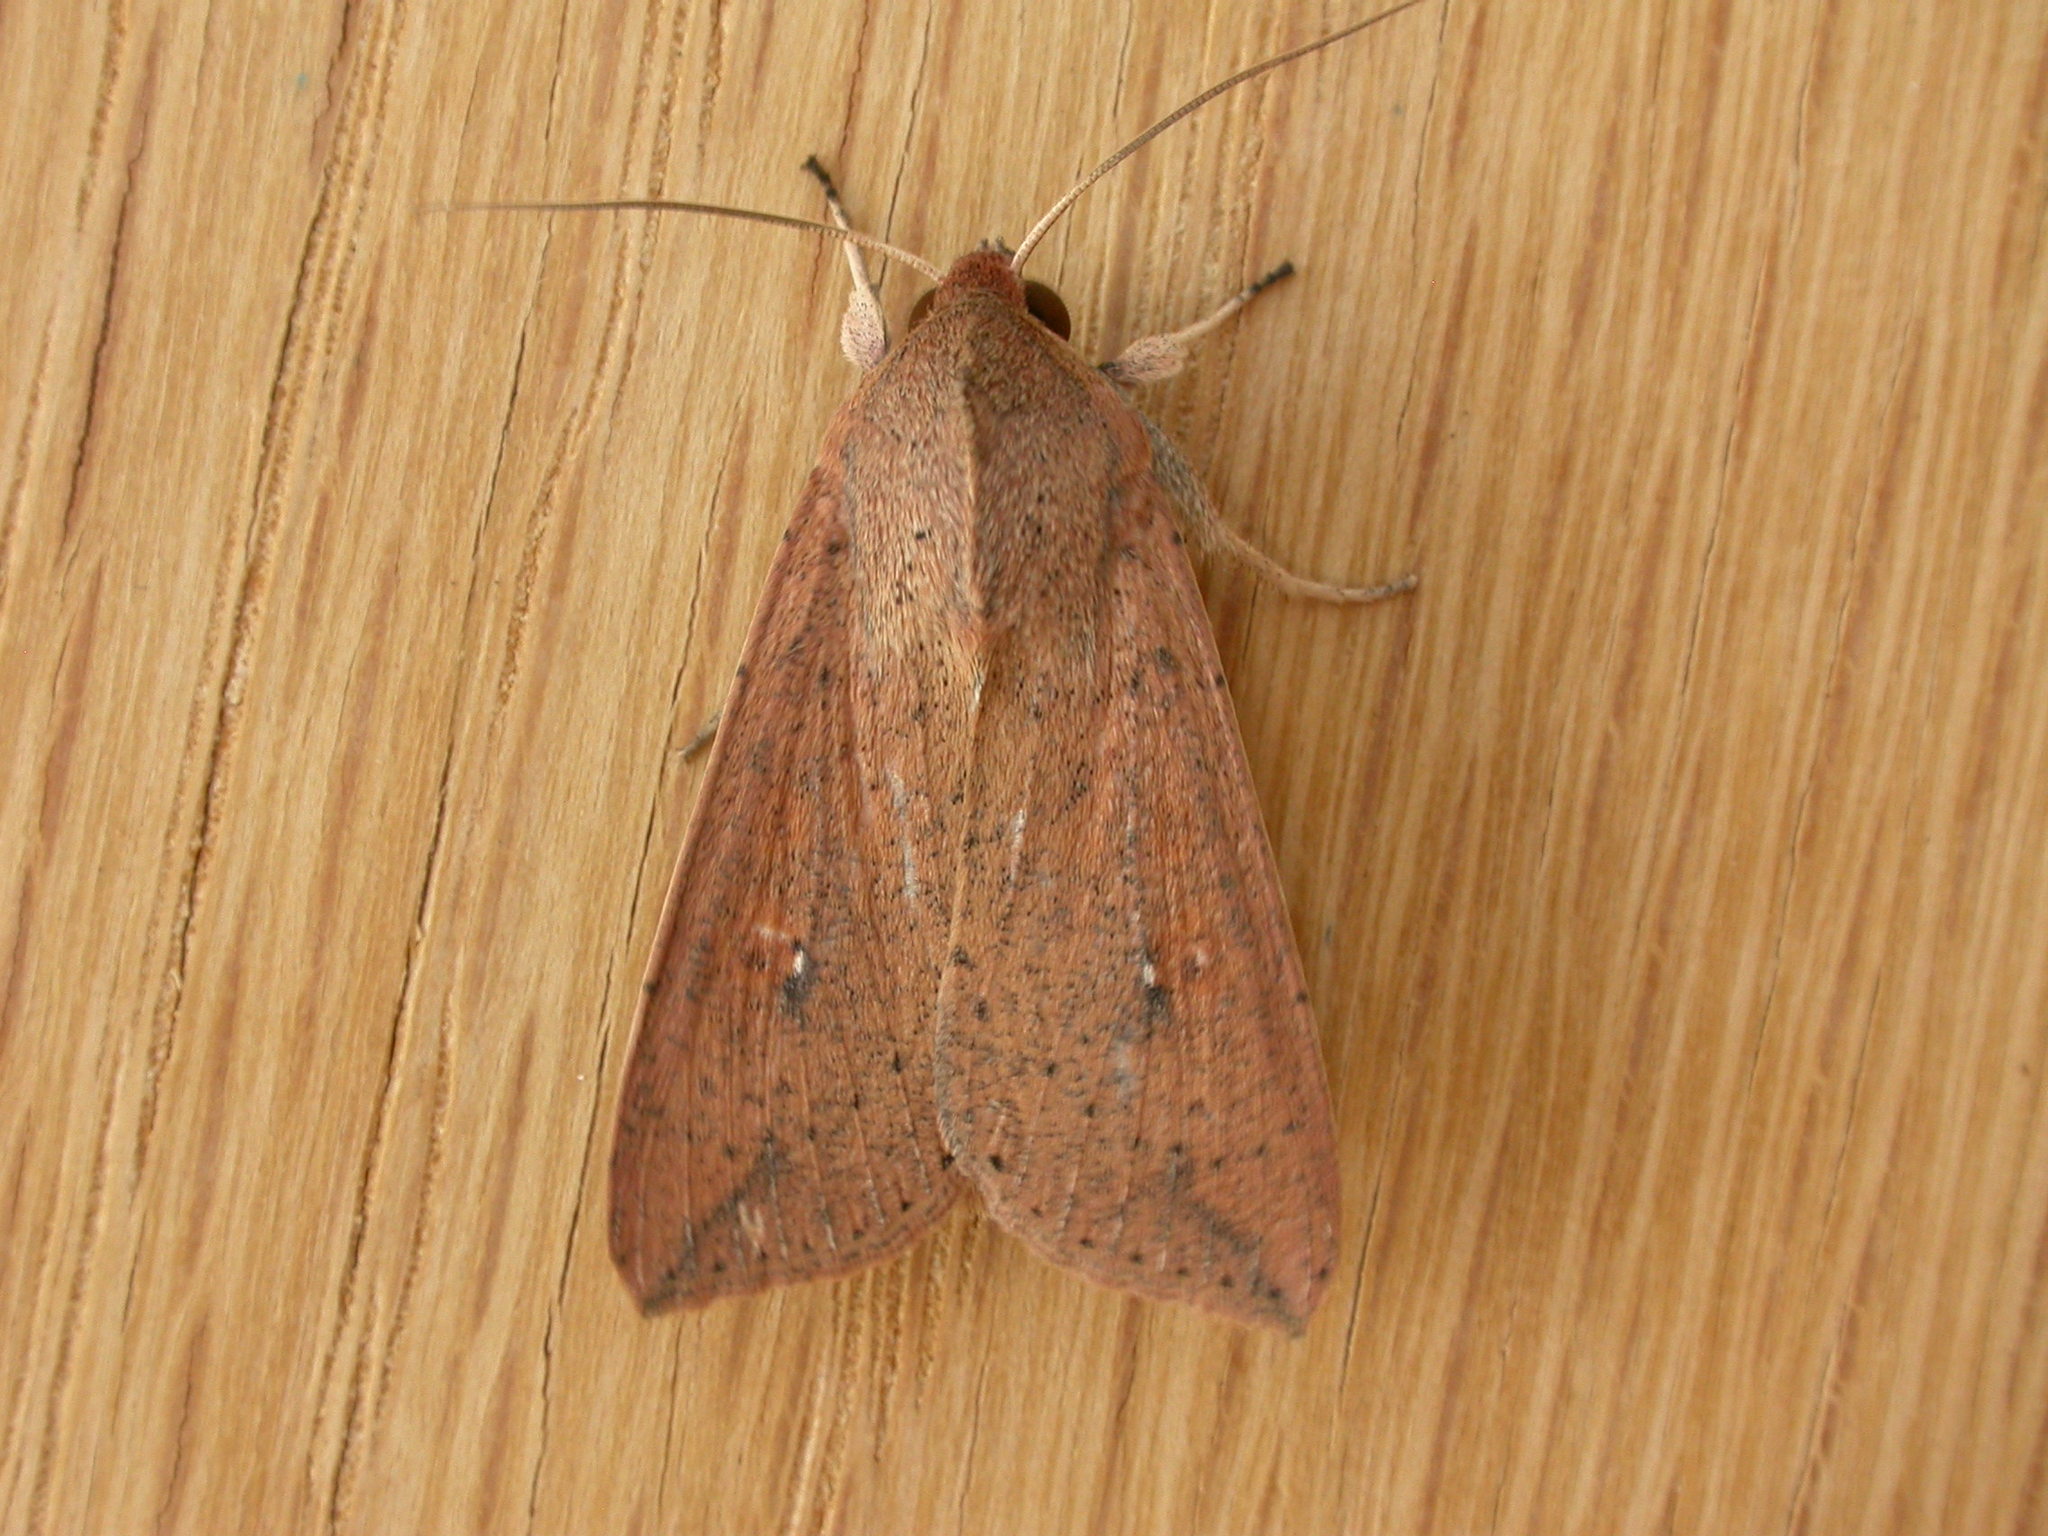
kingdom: Animalia
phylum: Arthropoda
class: Insecta
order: Lepidoptera
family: Noctuidae
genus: Mythimna
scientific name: Mythimna convecta
